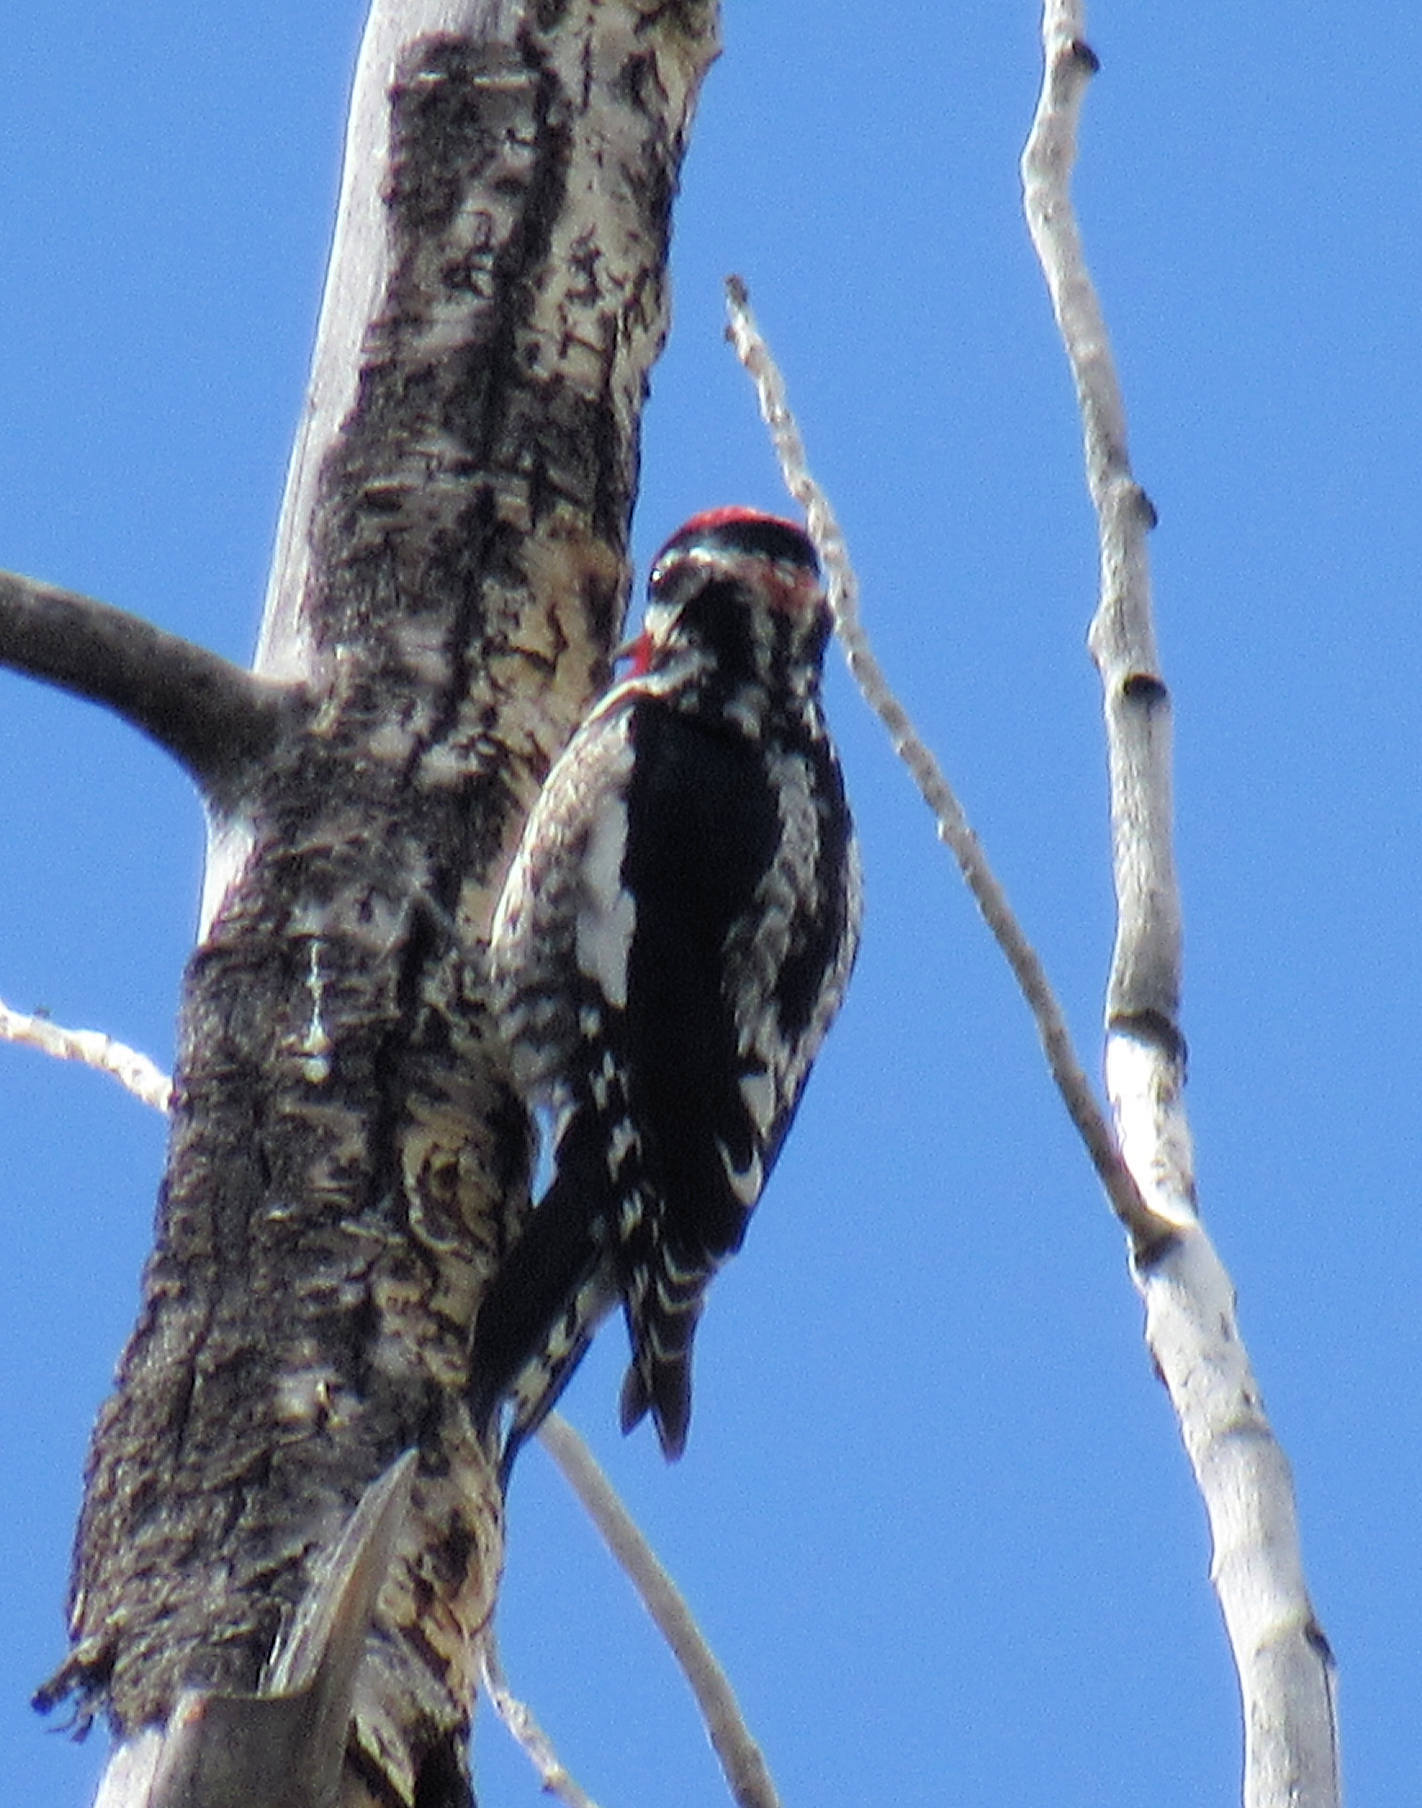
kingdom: Animalia
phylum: Chordata
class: Aves
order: Piciformes
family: Picidae
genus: Sphyrapicus
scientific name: Sphyrapicus nuchalis
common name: Red-naped sapsucker
